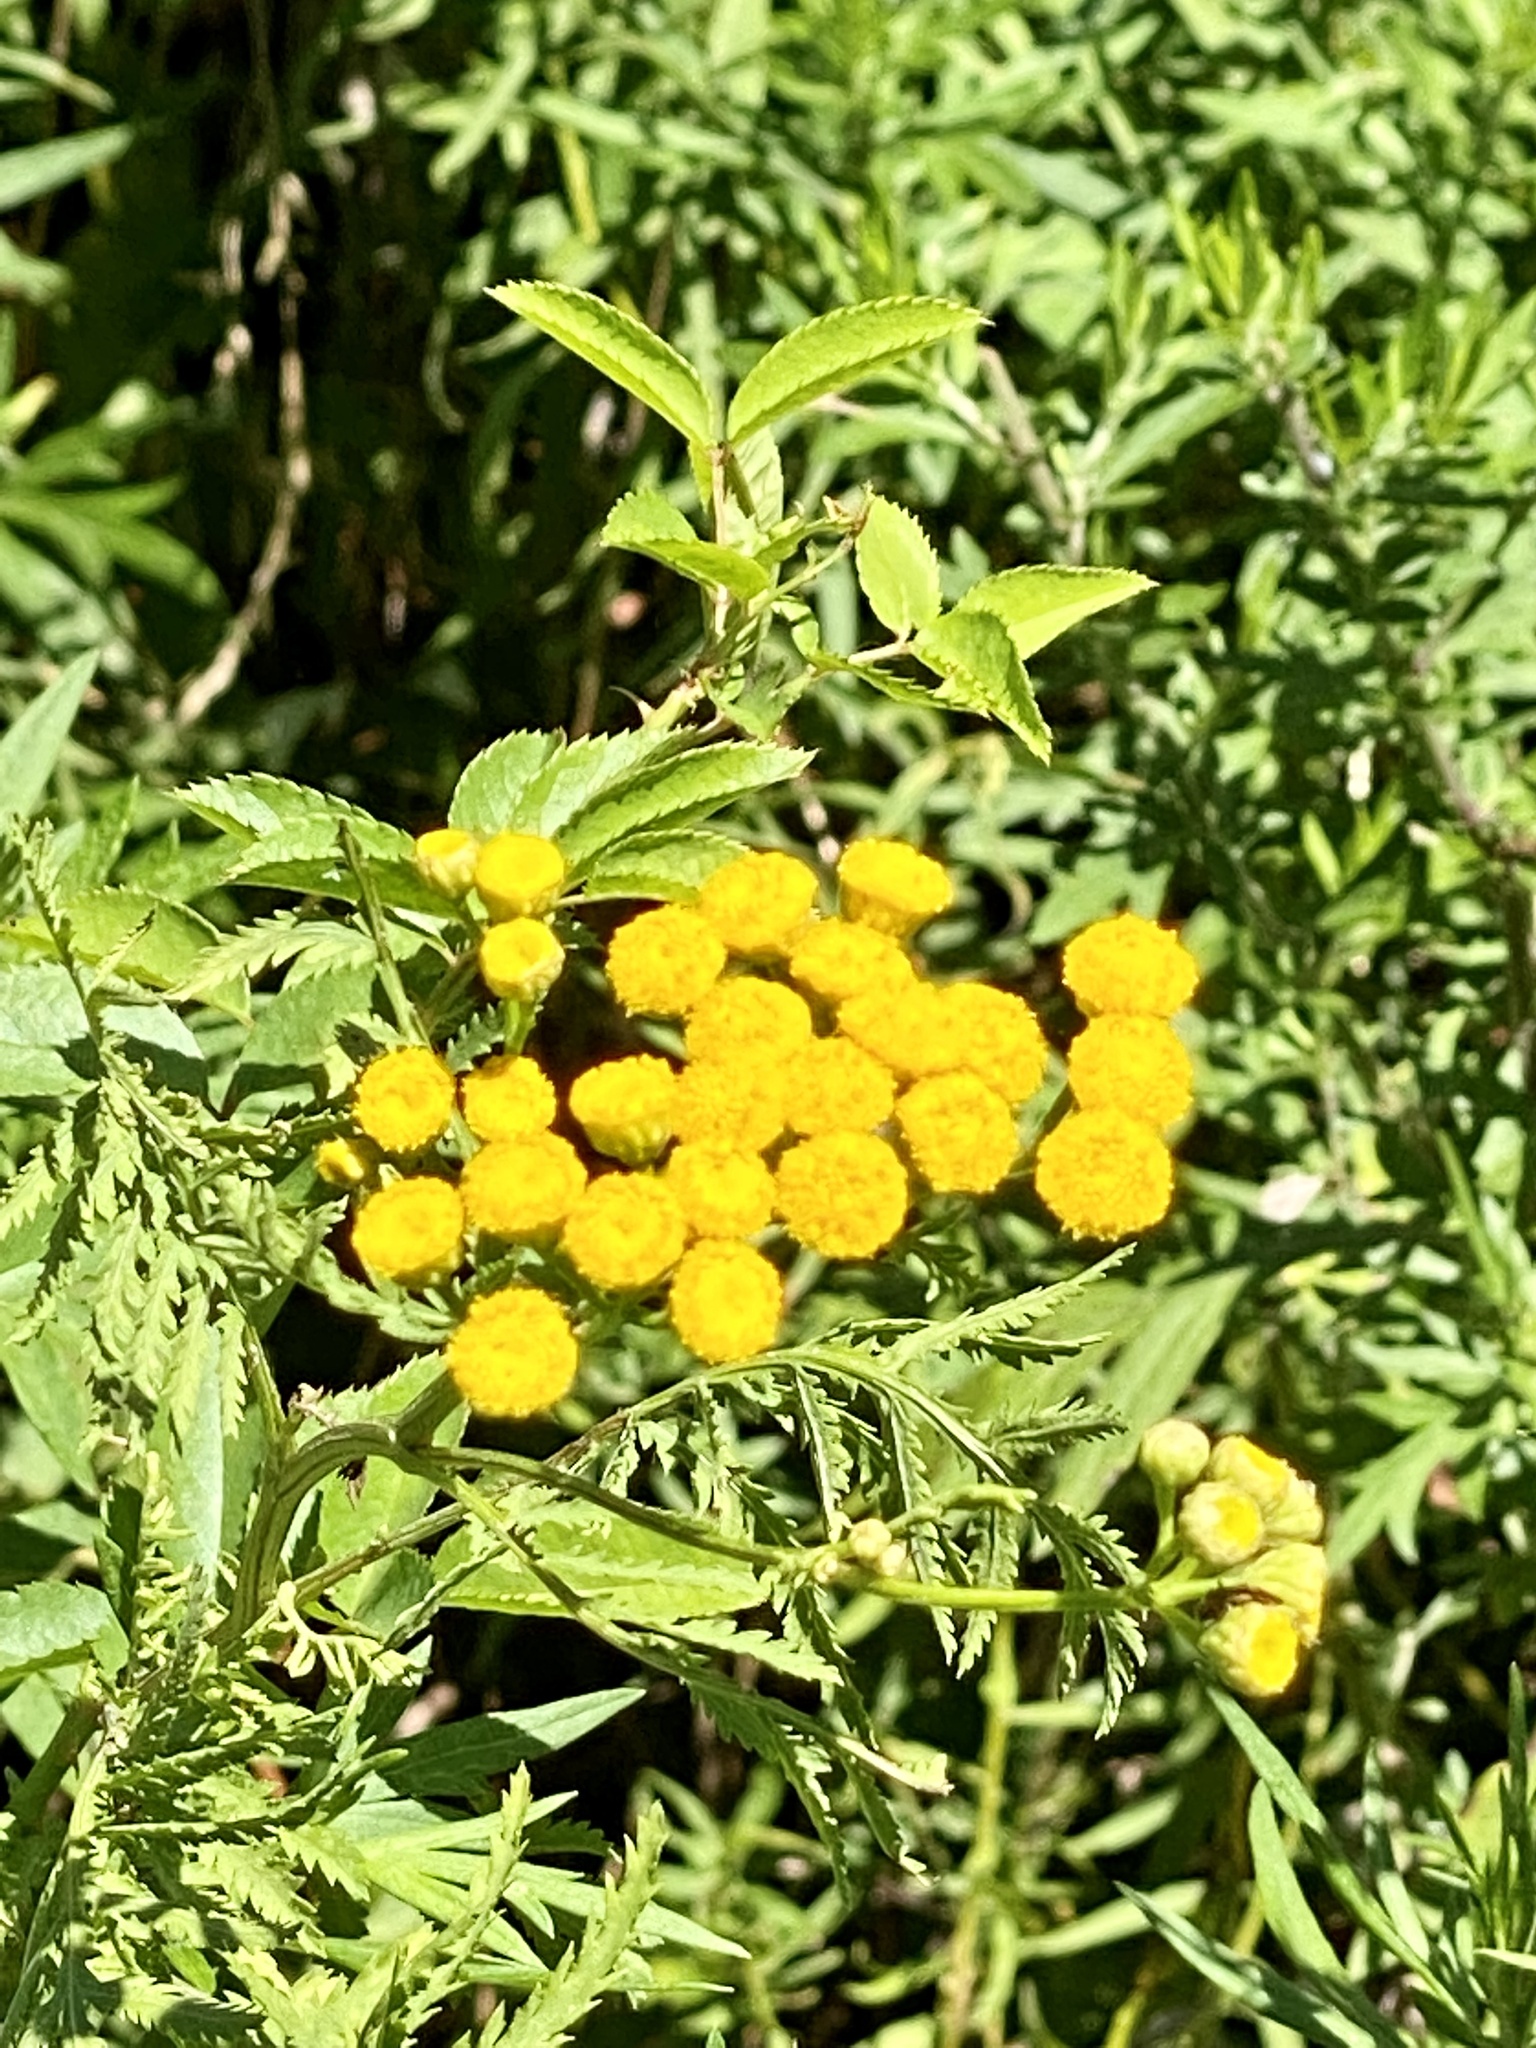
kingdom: Plantae
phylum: Tracheophyta
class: Magnoliopsida
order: Asterales
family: Asteraceae
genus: Tanacetum
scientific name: Tanacetum vulgare
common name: Common tansy
